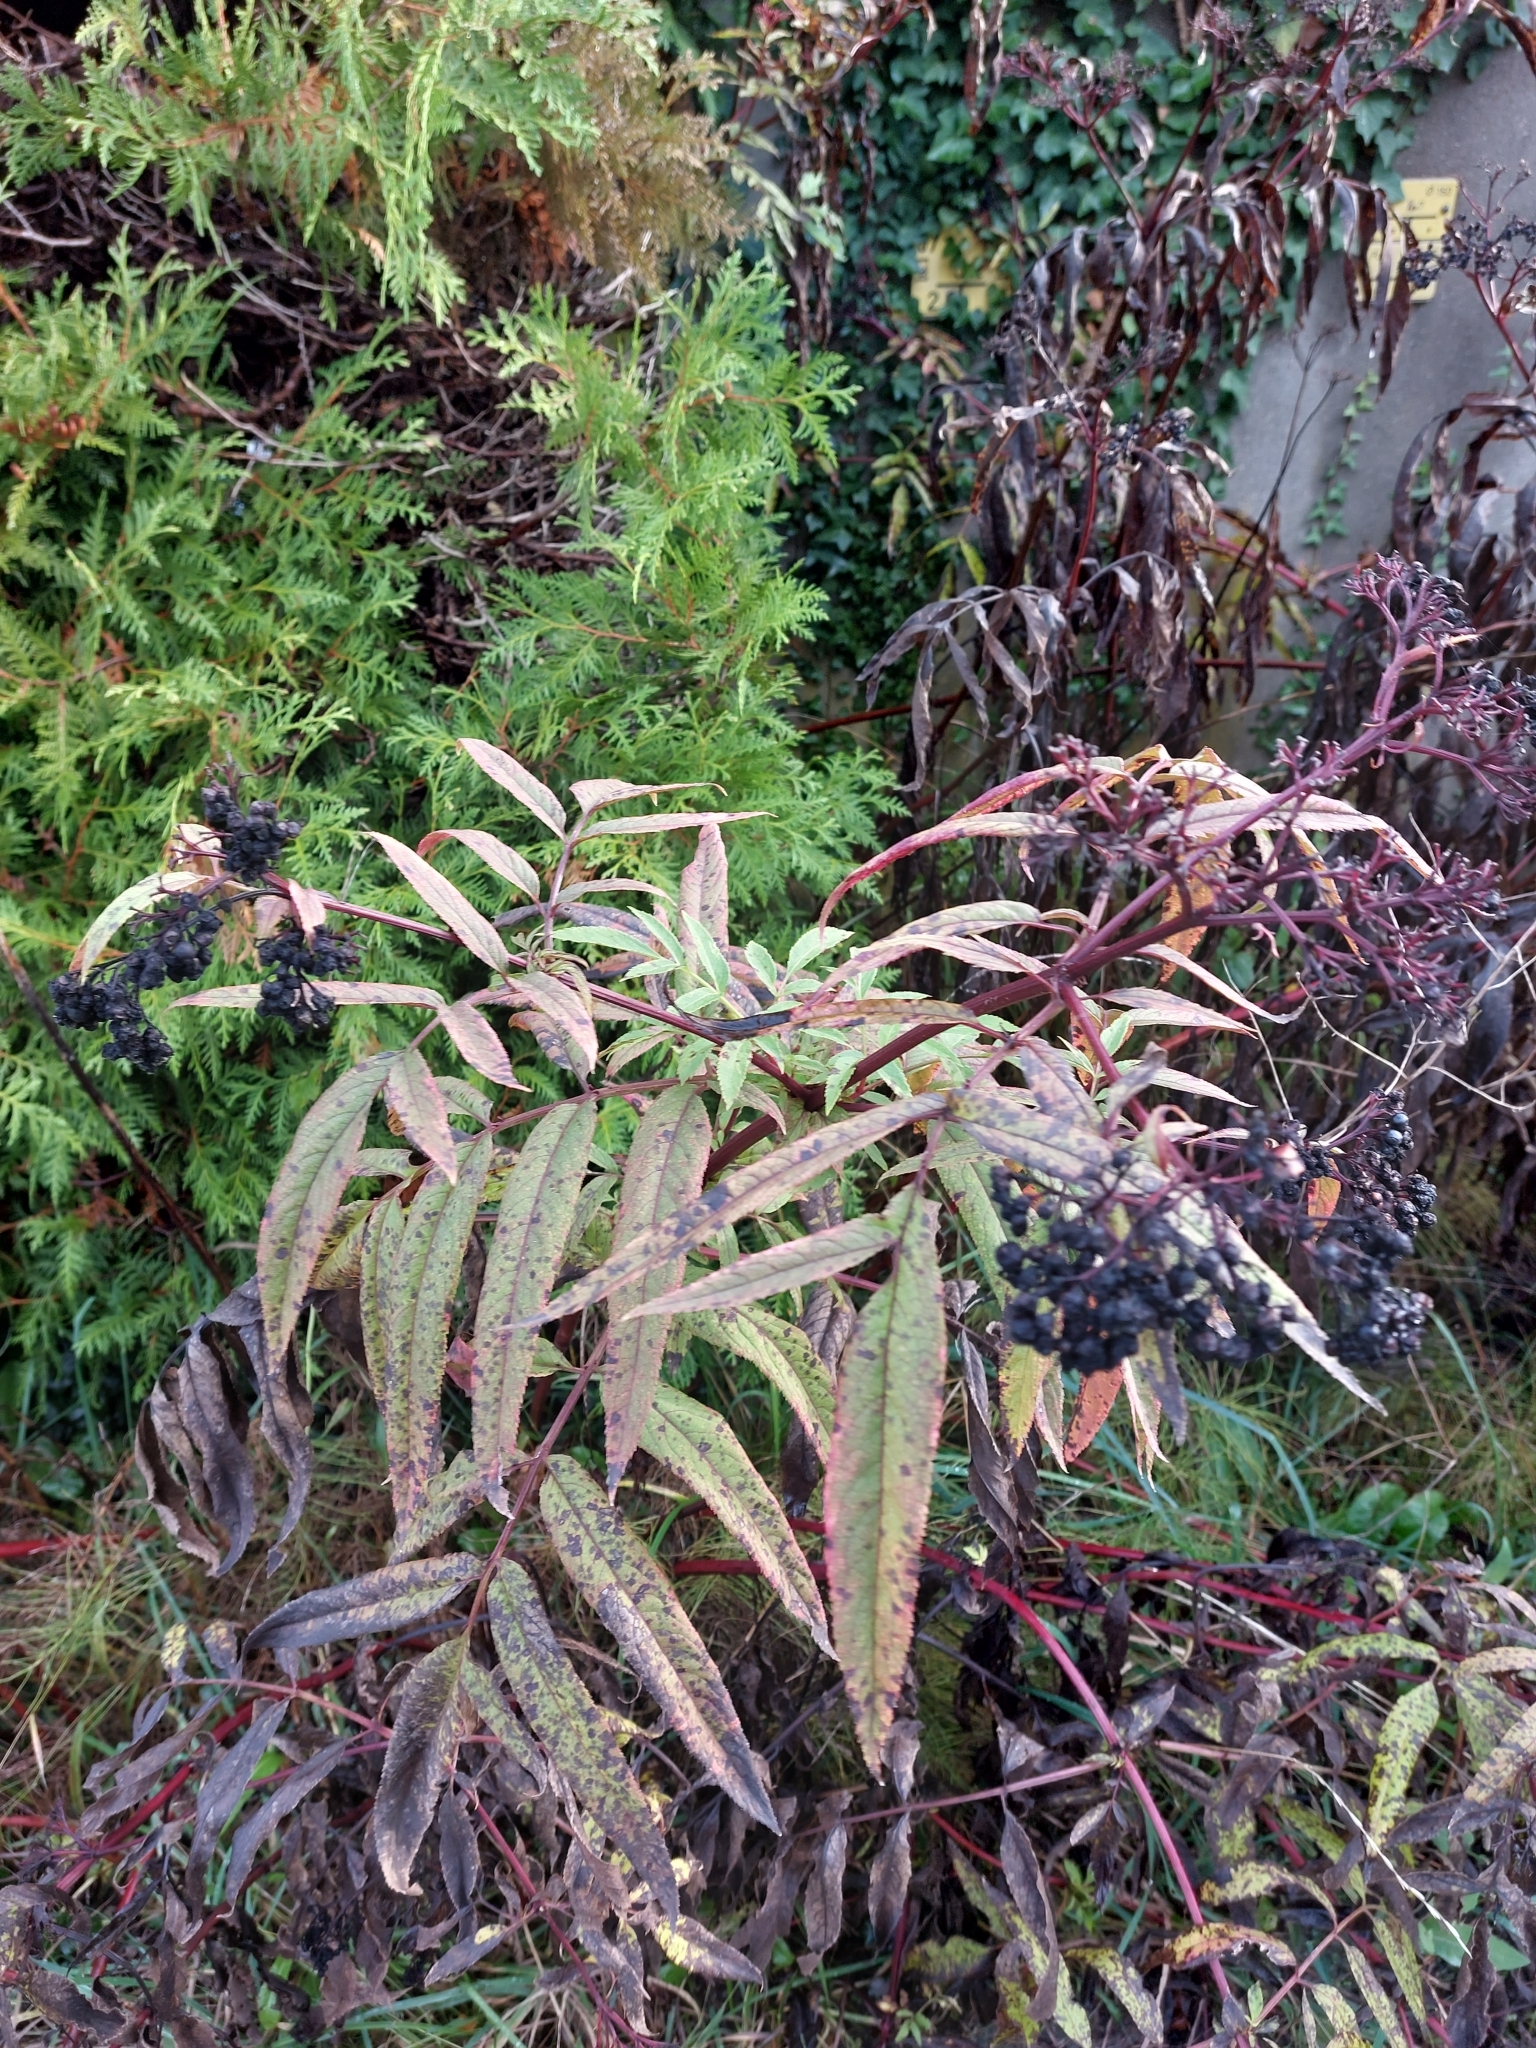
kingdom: Plantae
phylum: Tracheophyta
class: Magnoliopsida
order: Dipsacales
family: Viburnaceae
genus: Sambucus
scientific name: Sambucus ebulus
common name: Dwarf elder
